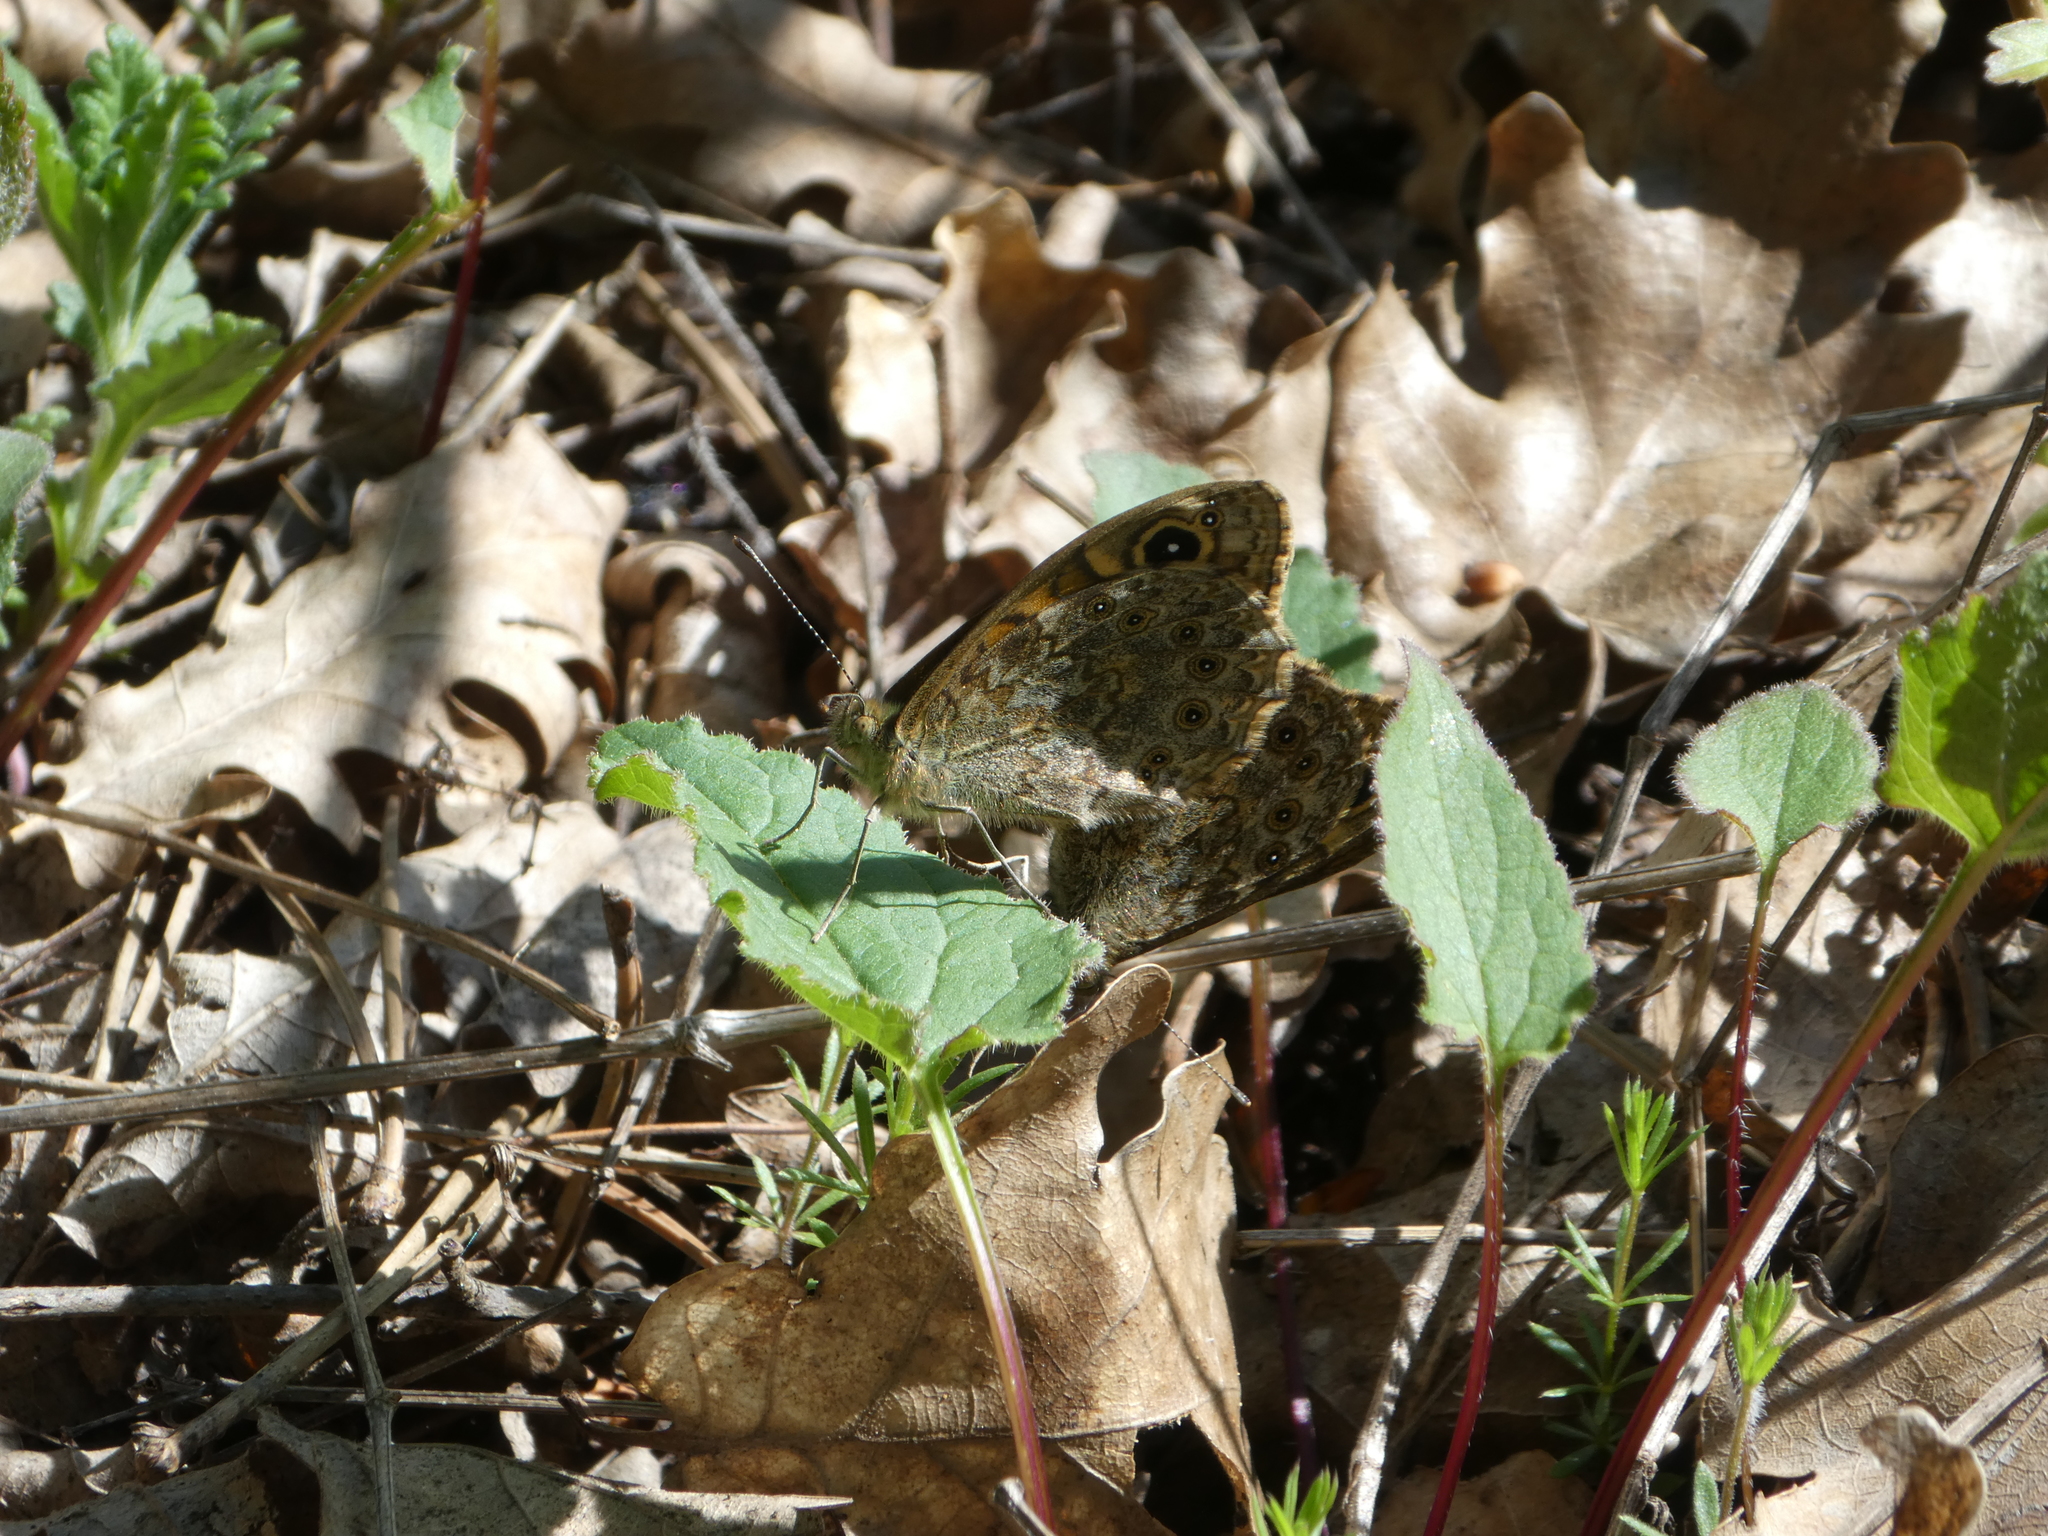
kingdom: Animalia
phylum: Arthropoda
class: Insecta
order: Lepidoptera
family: Nymphalidae
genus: Pararge
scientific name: Pararge Lasiommata megera
